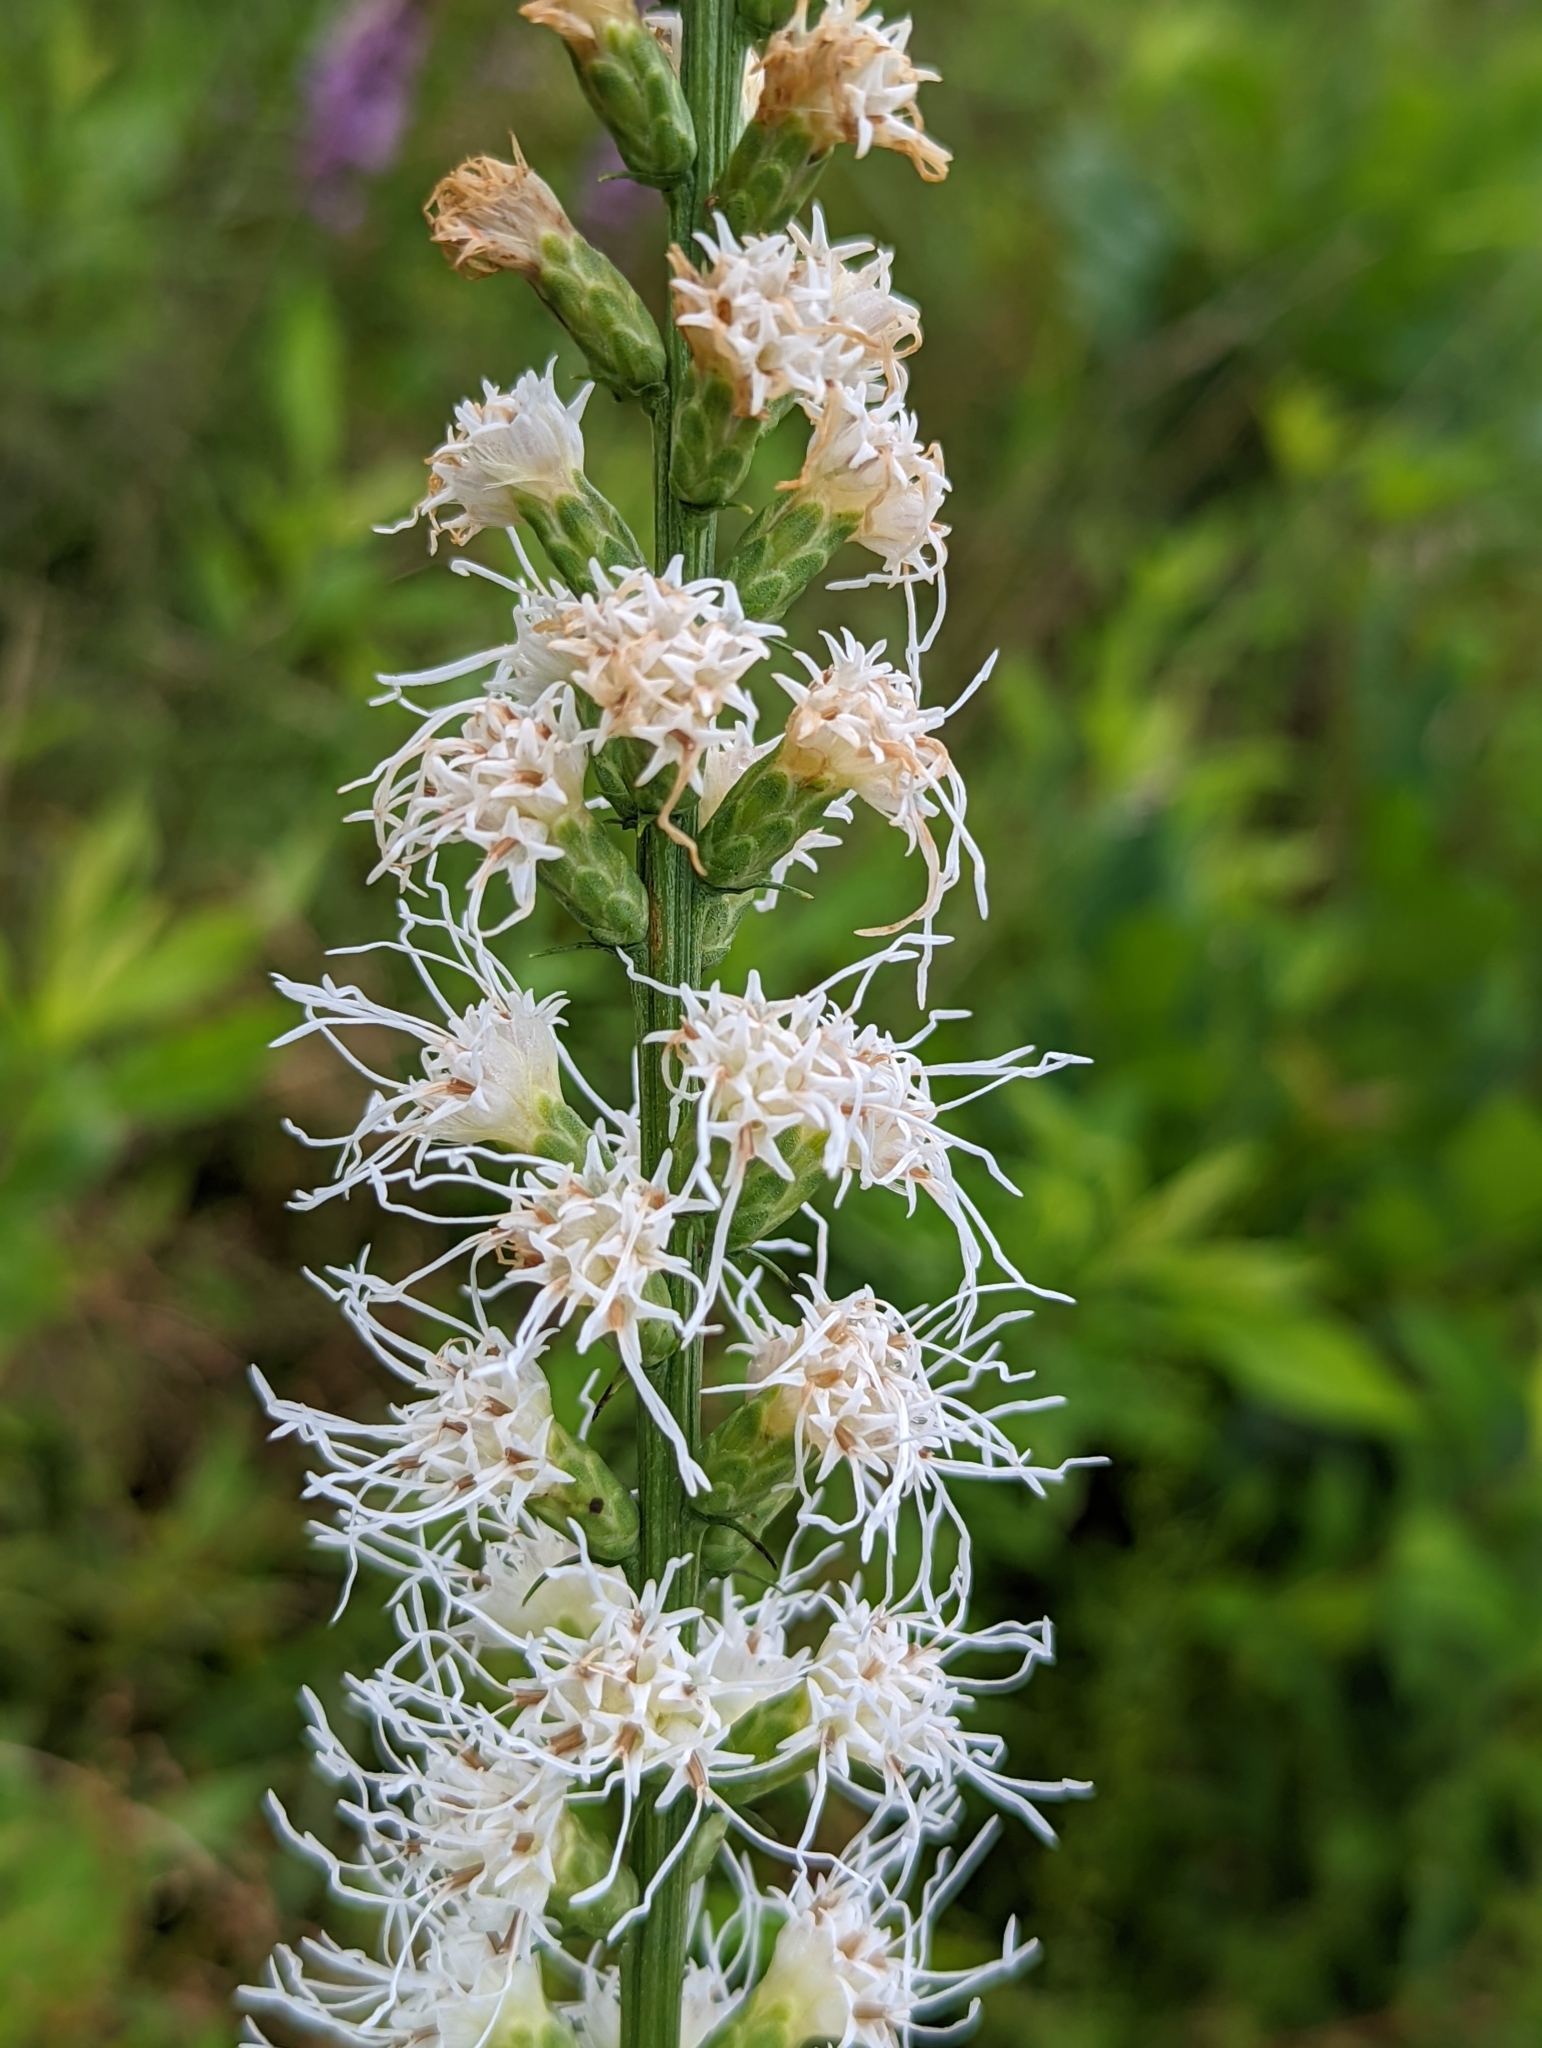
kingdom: Plantae
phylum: Tracheophyta
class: Magnoliopsida
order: Asterales
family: Asteraceae
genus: Liatris
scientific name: Liatris spicata
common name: Florist gayfeather
